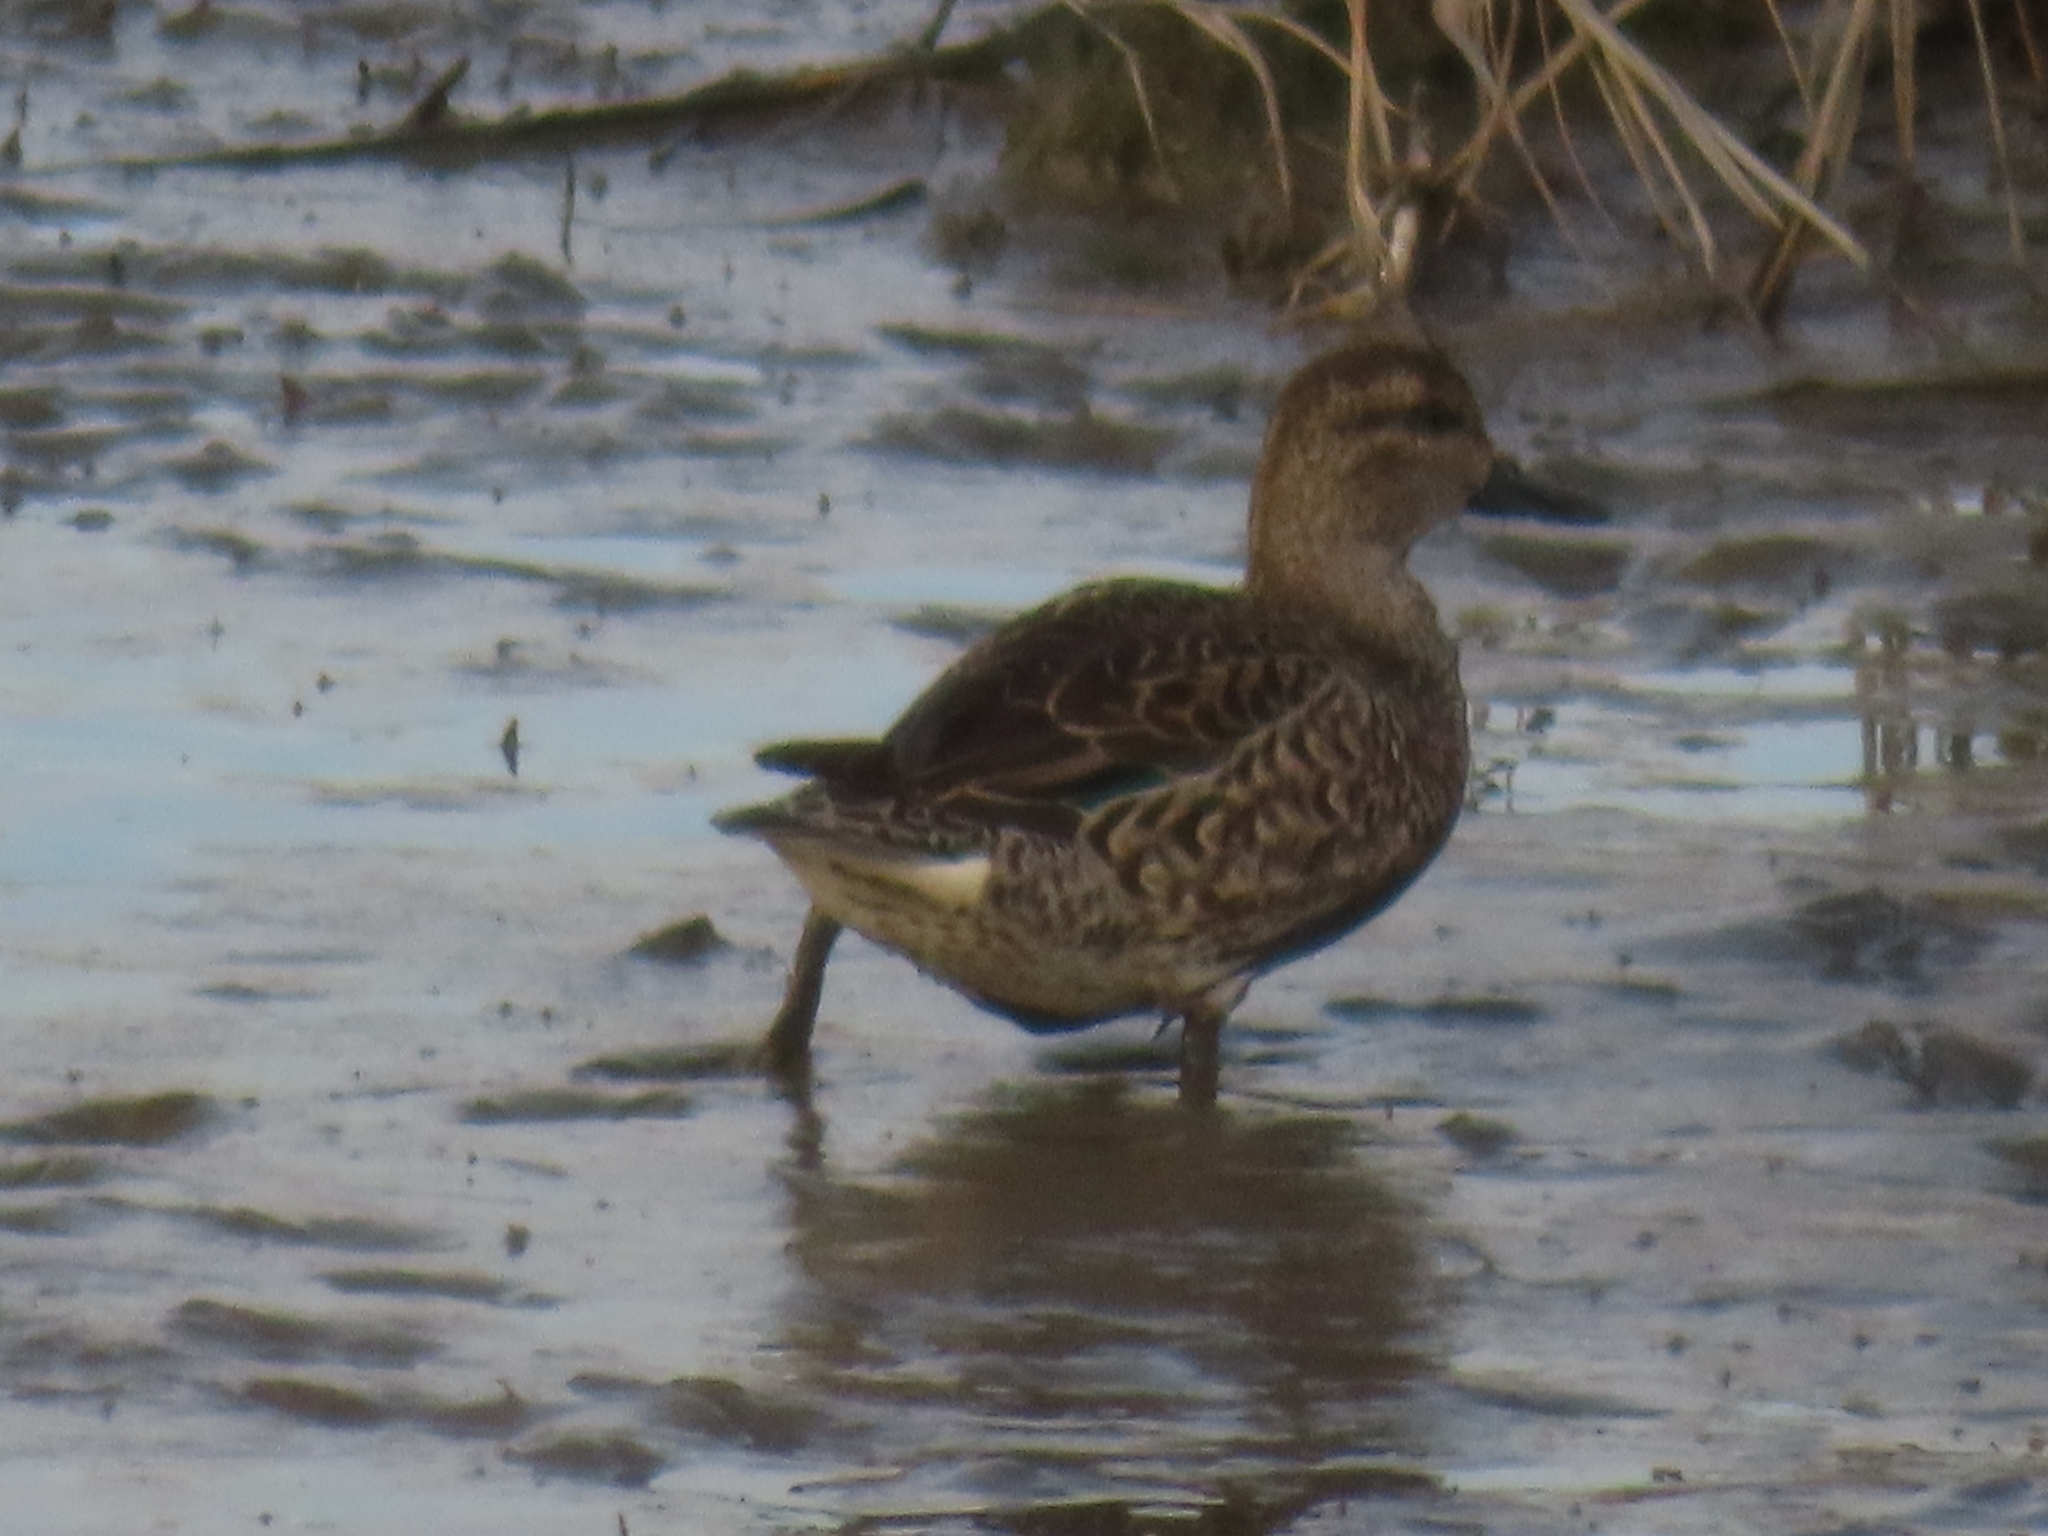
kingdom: Animalia
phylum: Chordata
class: Aves
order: Anseriformes
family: Anatidae
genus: Anas
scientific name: Anas crecca
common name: Eurasian teal
